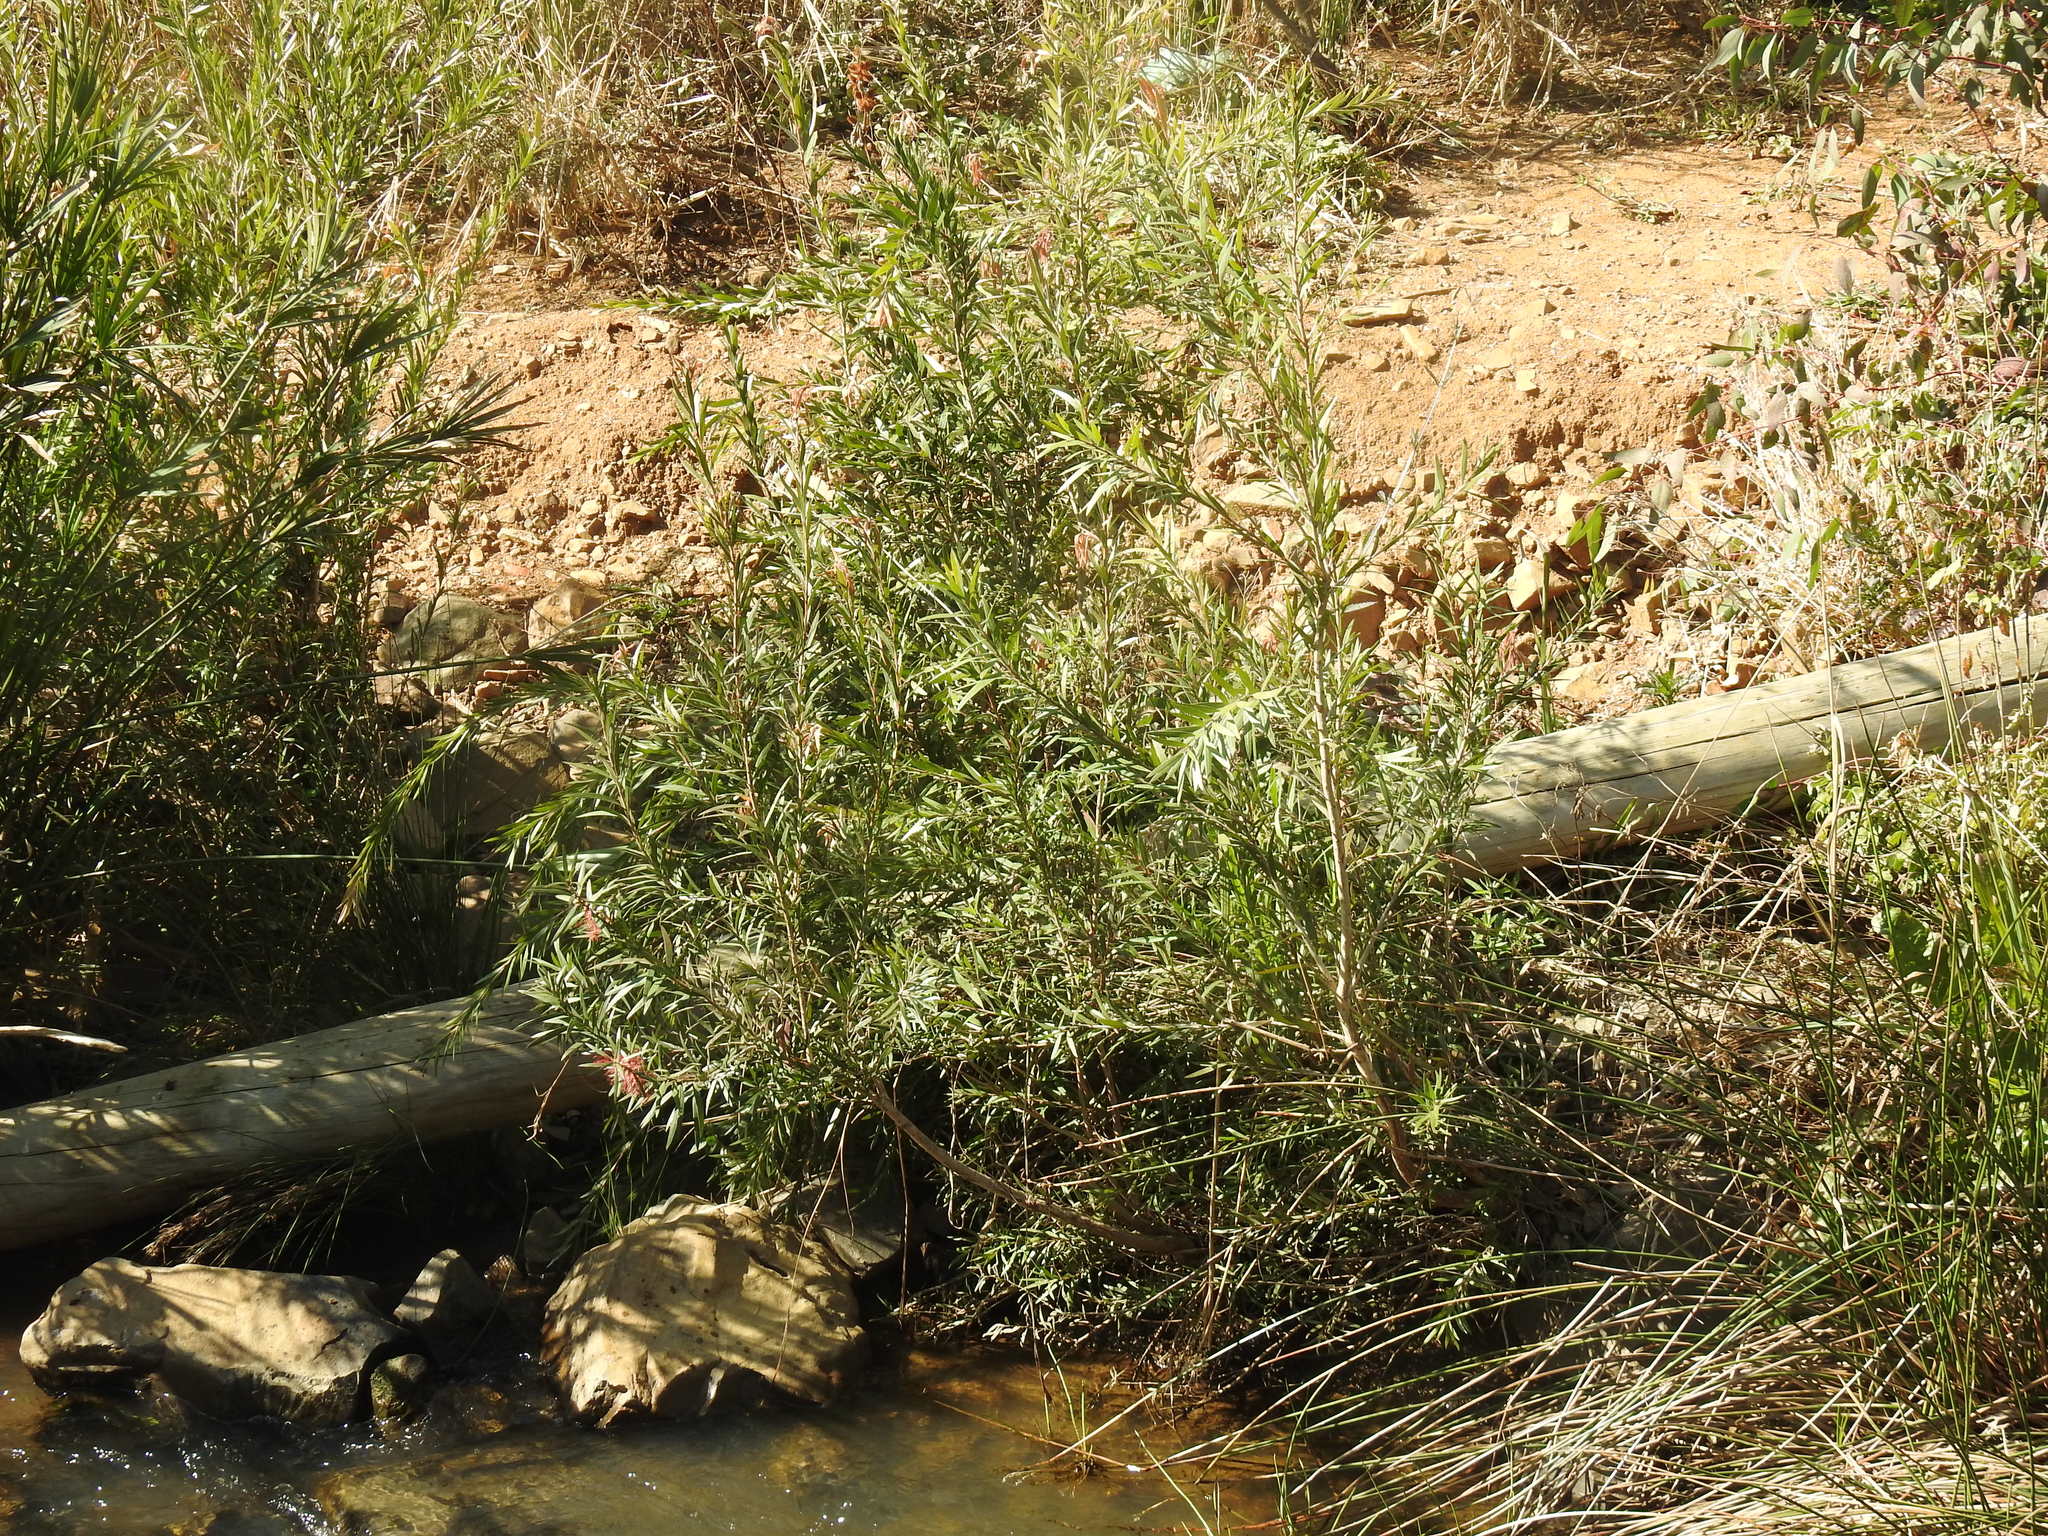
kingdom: Plantae
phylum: Tracheophyta
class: Magnoliopsida
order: Myrtales
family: Myrtaceae
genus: Callistemon
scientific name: Callistemon viminalis
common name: Drooping bottlebrush
